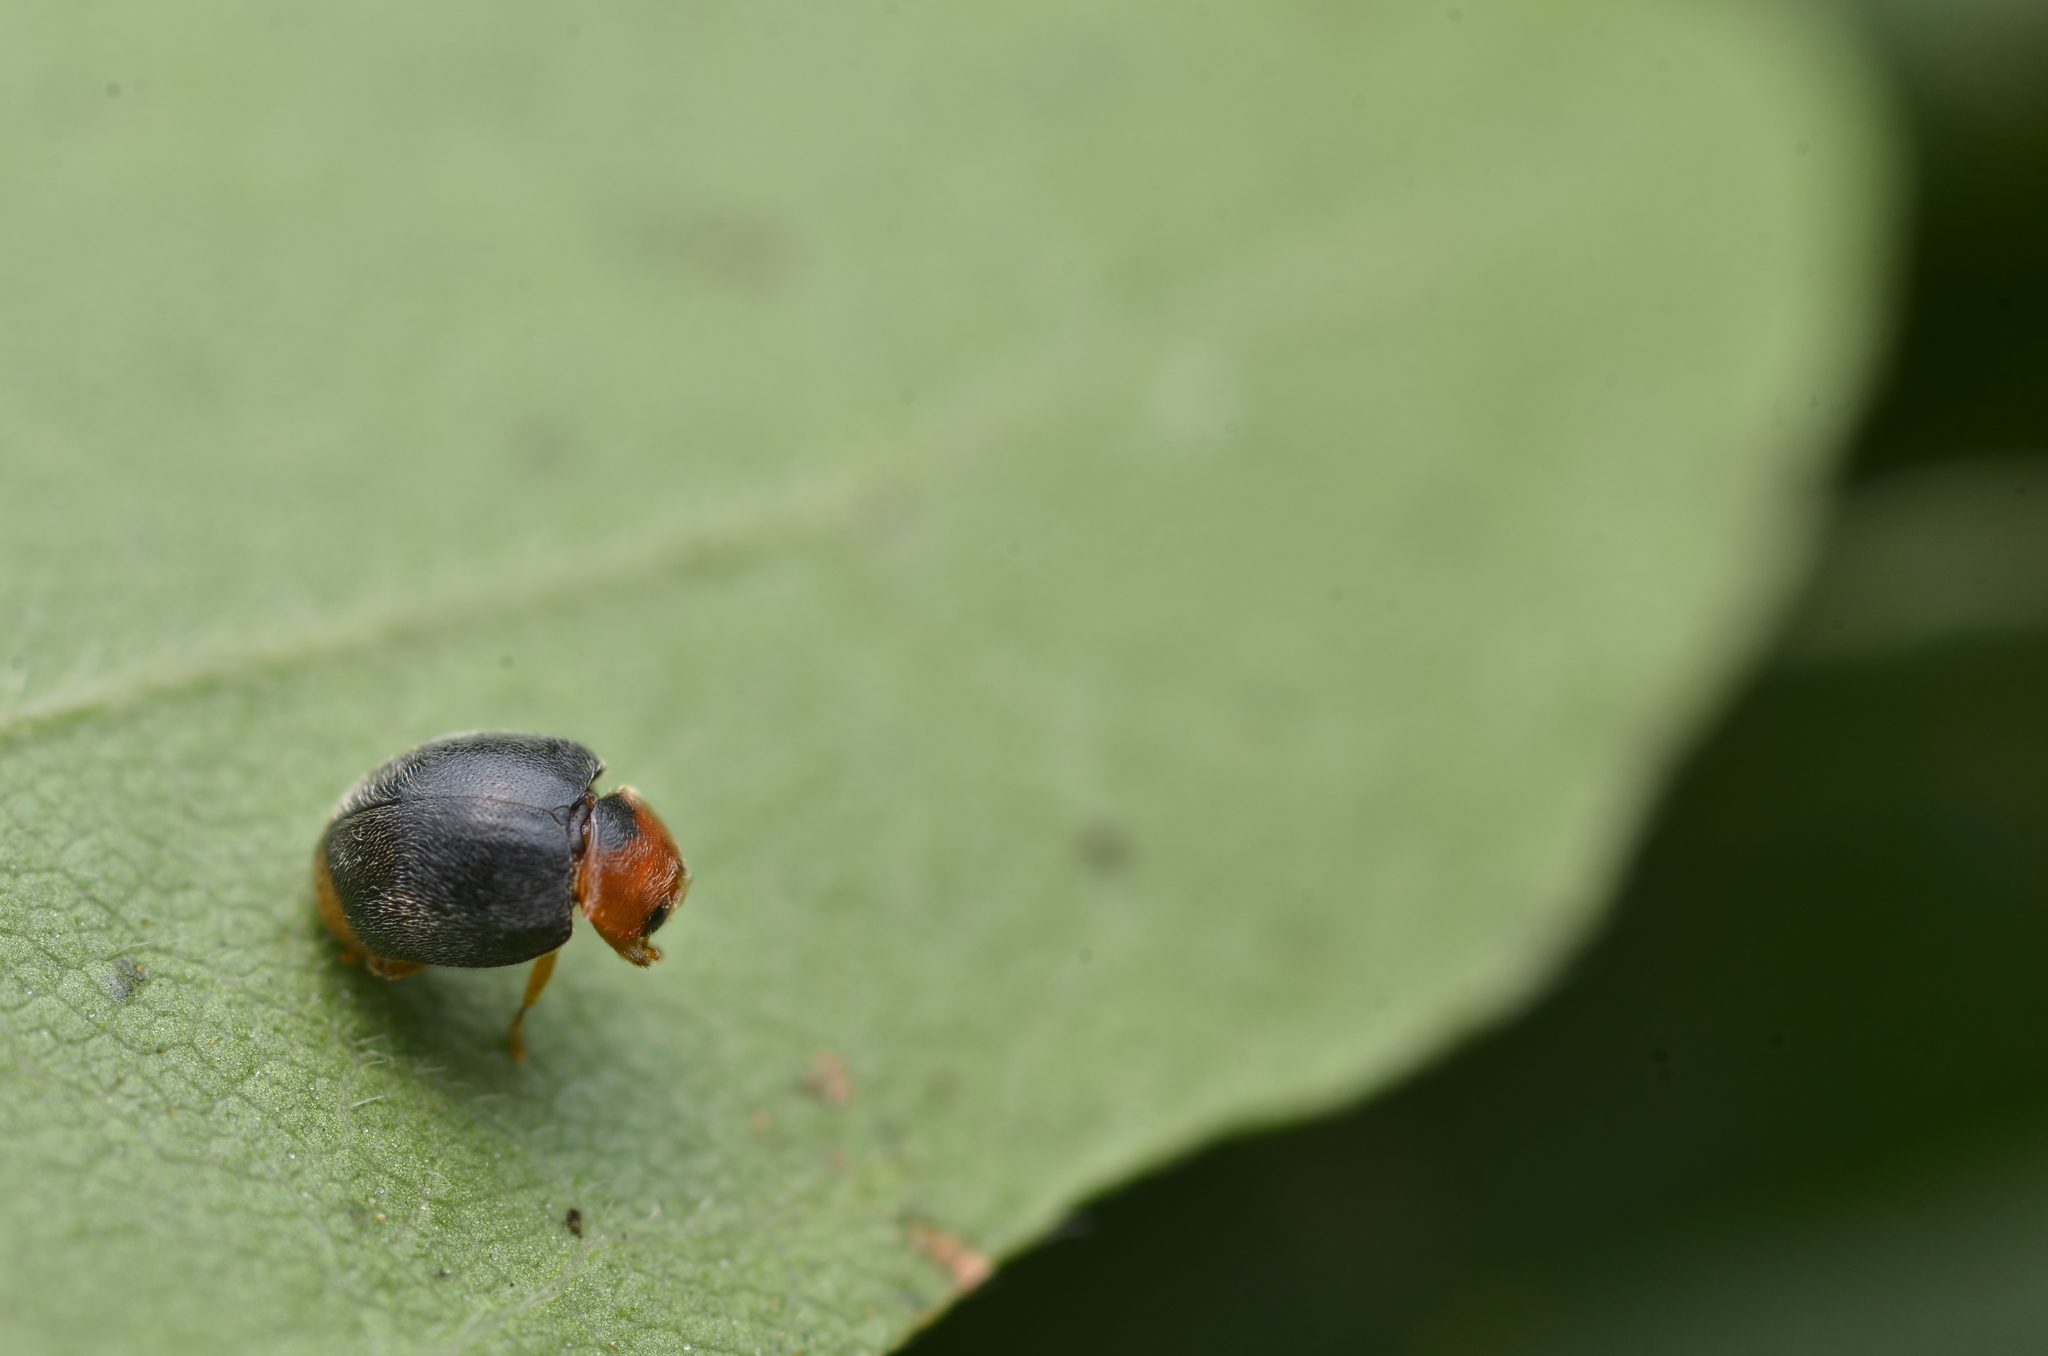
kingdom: Animalia
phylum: Arthropoda
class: Insecta
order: Coleoptera
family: Coccinellidae
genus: Scymnus
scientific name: Scymnus ferrugatus
